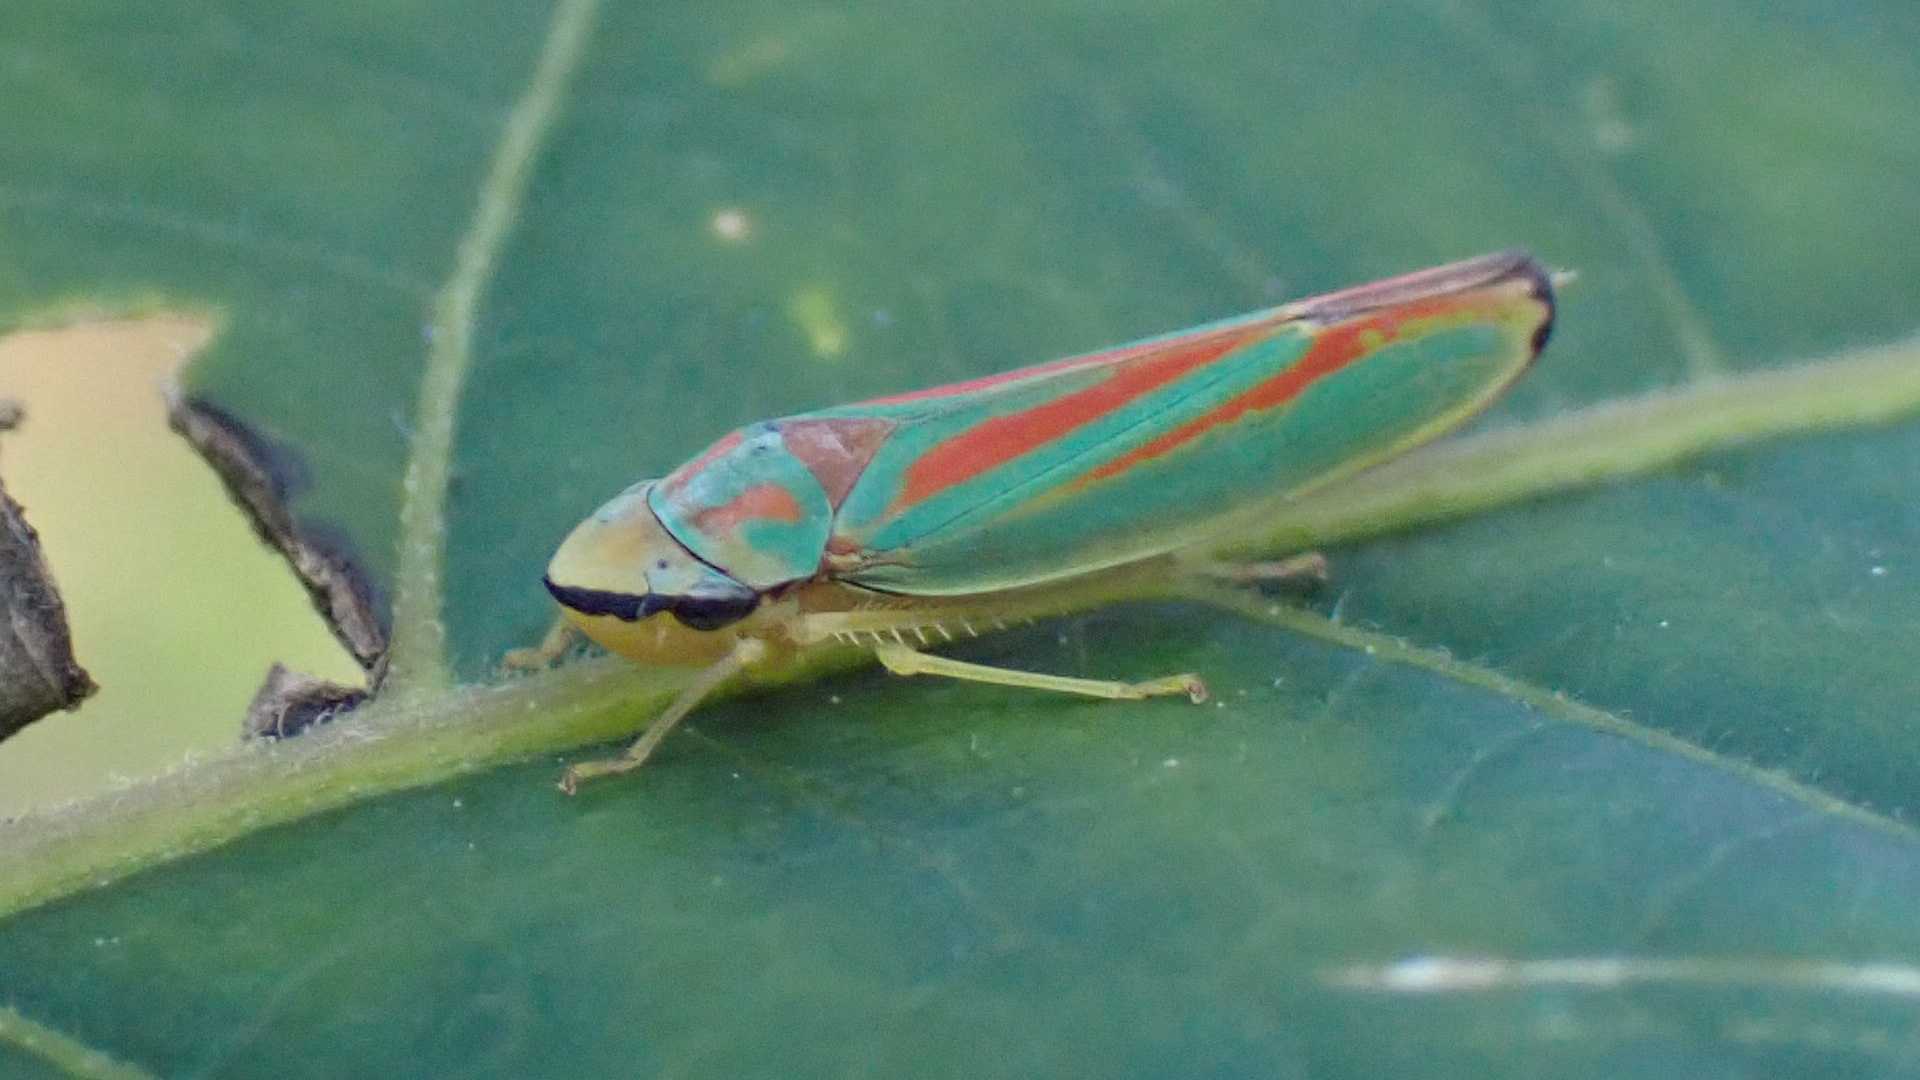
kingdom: Animalia
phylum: Arthropoda
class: Insecta
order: Hemiptera
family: Cicadellidae
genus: Graphocephala
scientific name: Graphocephala fennahi
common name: Rhododendron leafhopper
